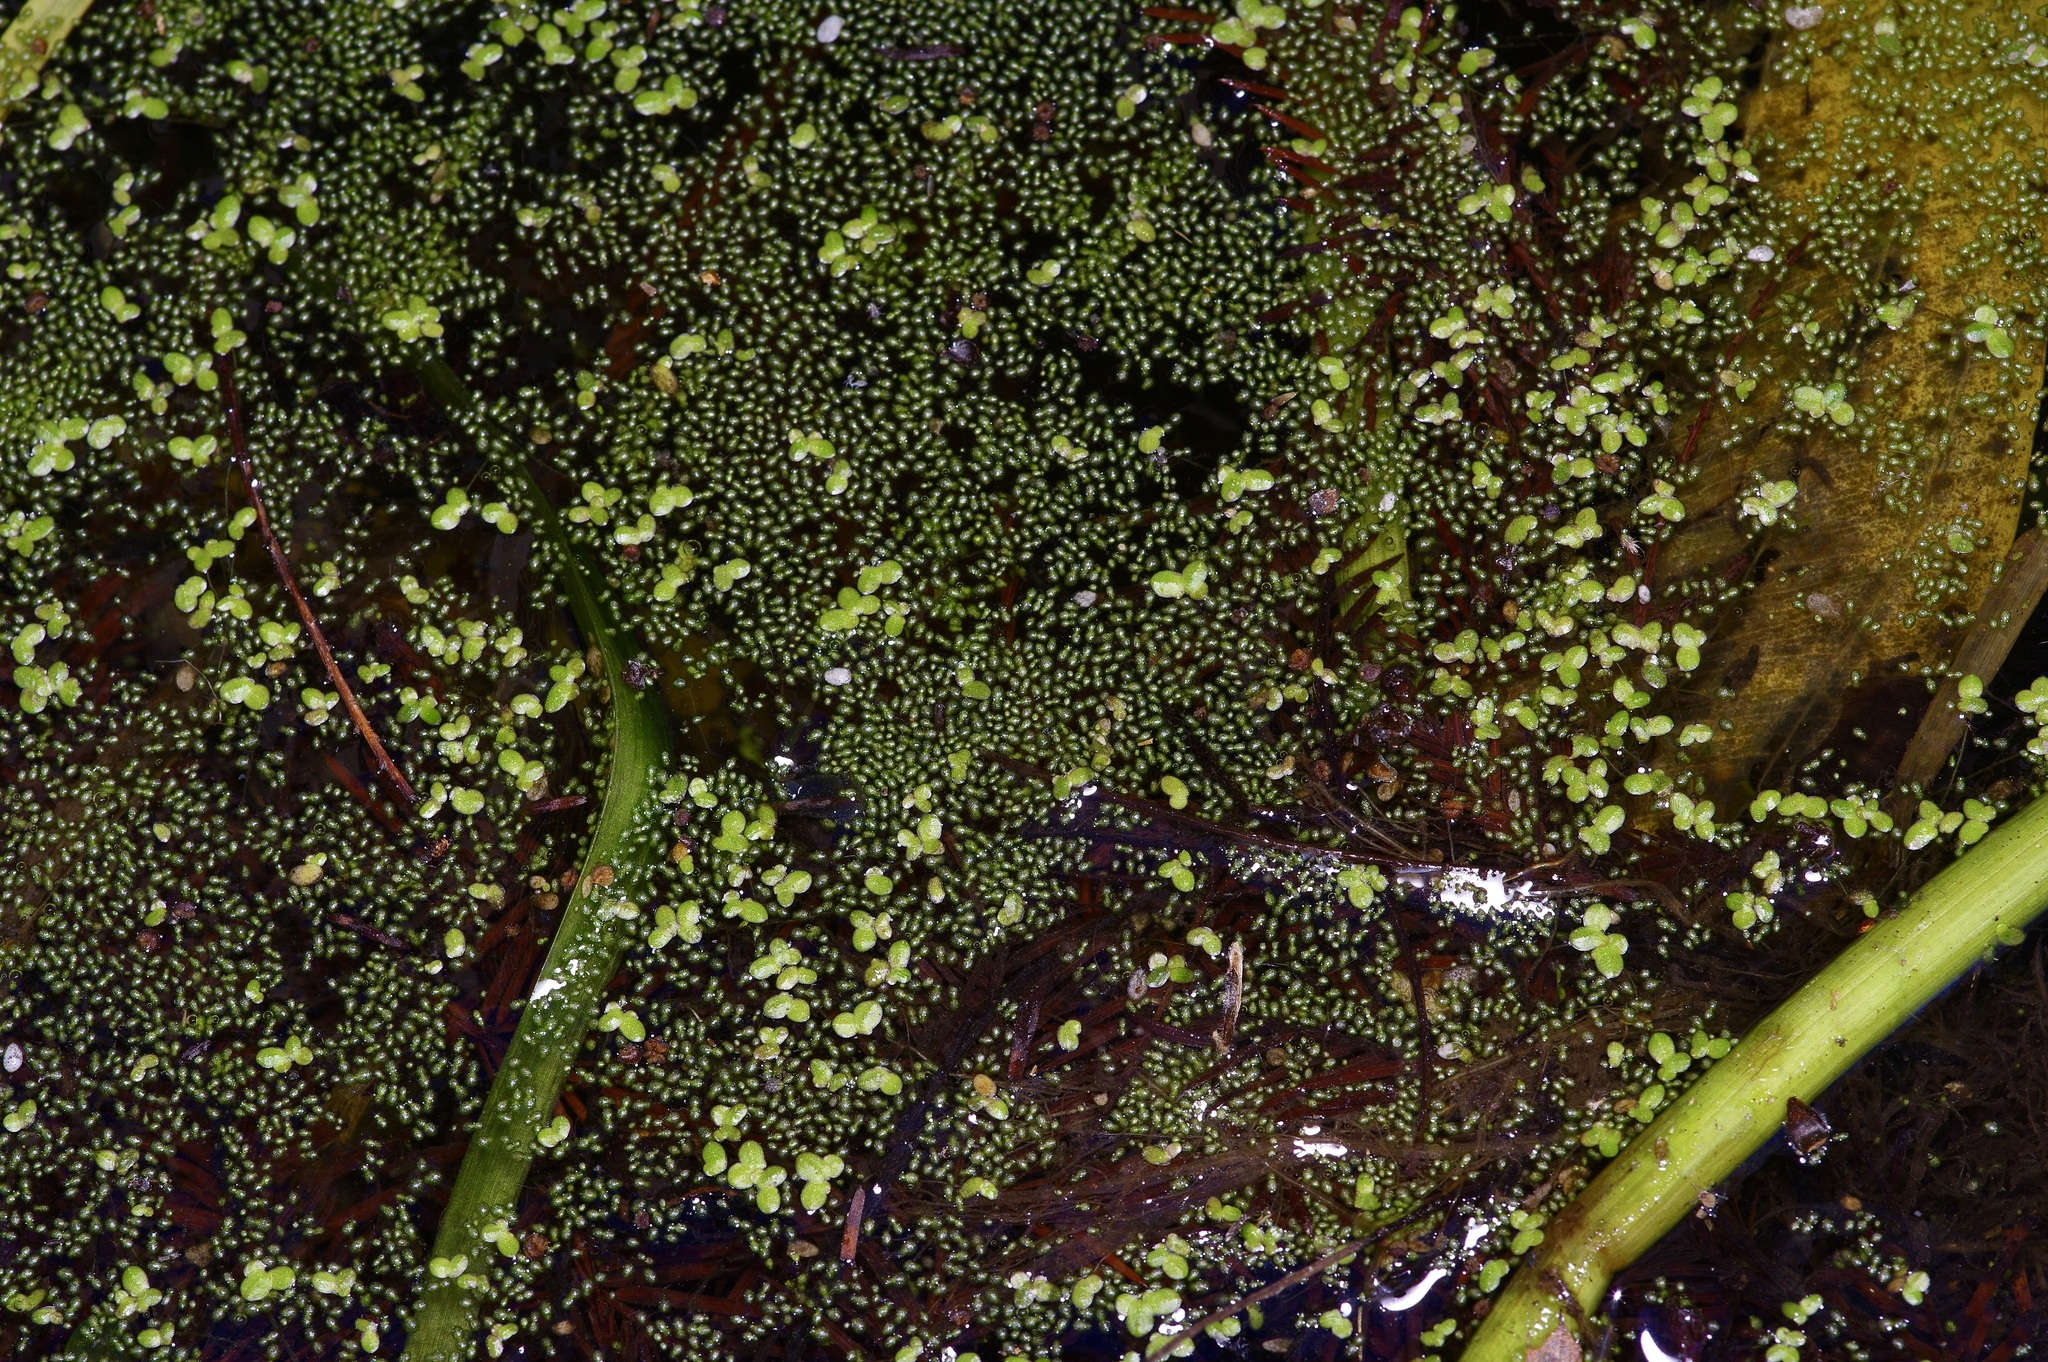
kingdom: Plantae
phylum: Tracheophyta
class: Liliopsida
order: Alismatales
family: Araceae
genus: Wolffia
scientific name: Wolffia columbiana
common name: Columbia watermeal
